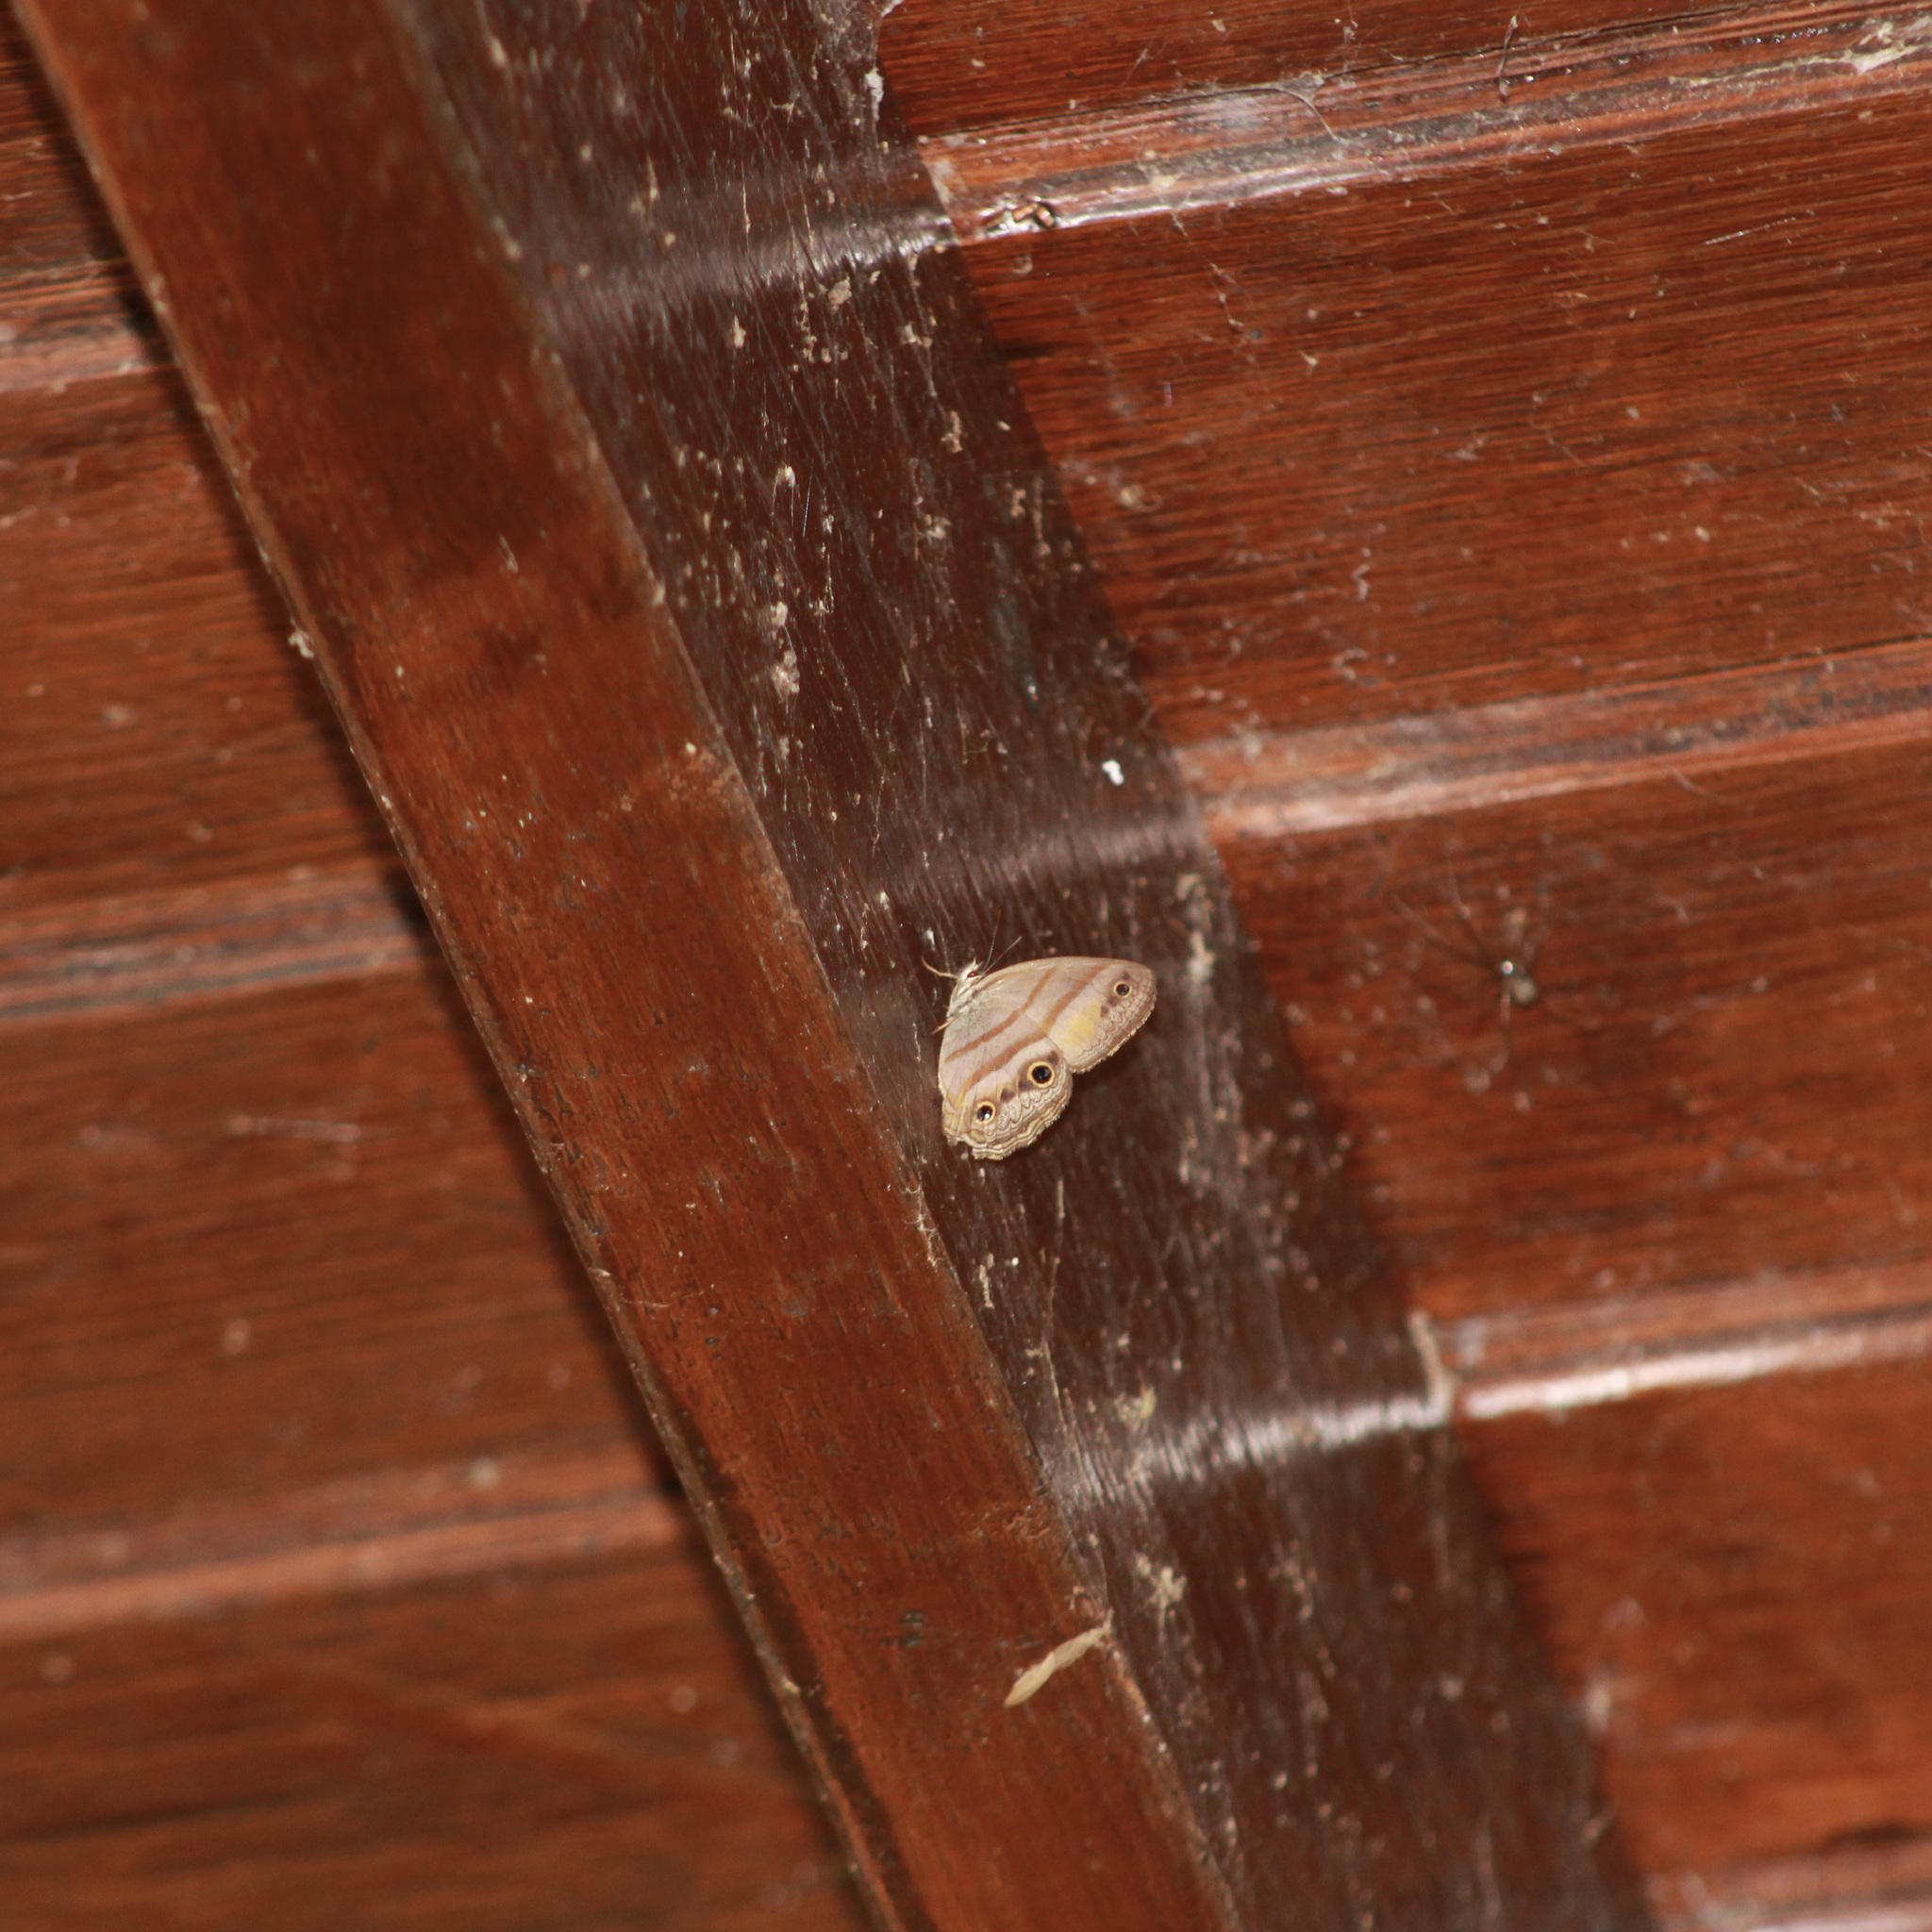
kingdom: Animalia
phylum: Arthropoda
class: Insecta
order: Lepidoptera
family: Nymphalidae
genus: Argyreuptychia
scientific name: Argyreuptychia penelope
